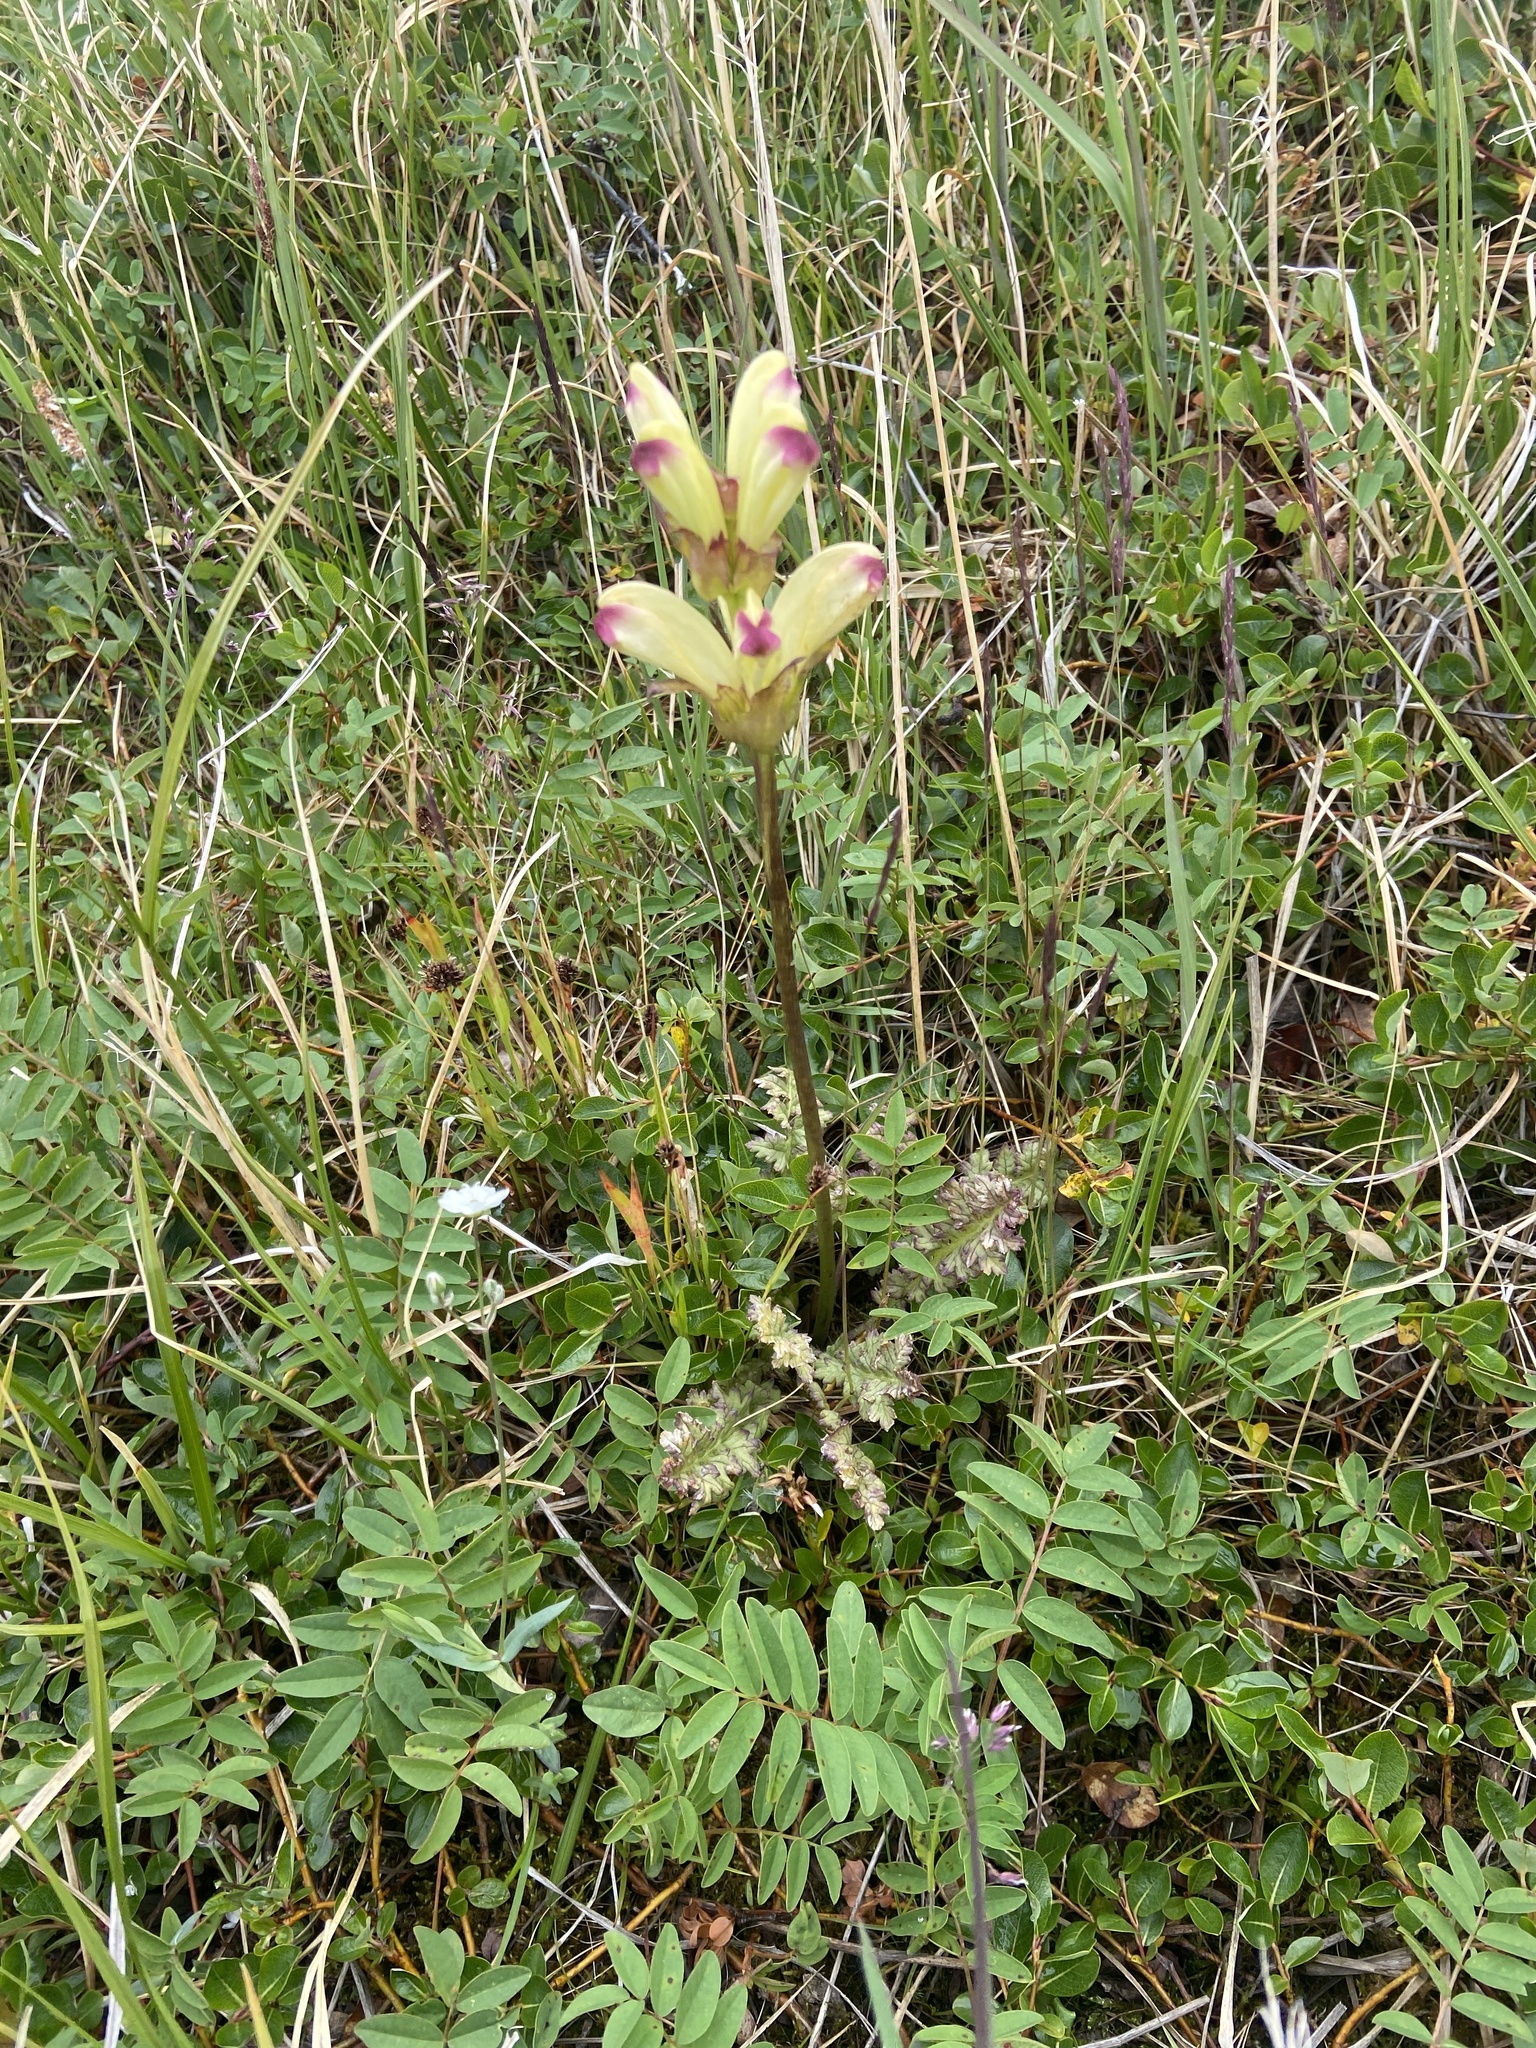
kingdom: Plantae
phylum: Tracheophyta
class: Magnoliopsida
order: Lamiales
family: Orobanchaceae
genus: Pedicularis
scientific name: Pedicularis sceptrum-carolinum
